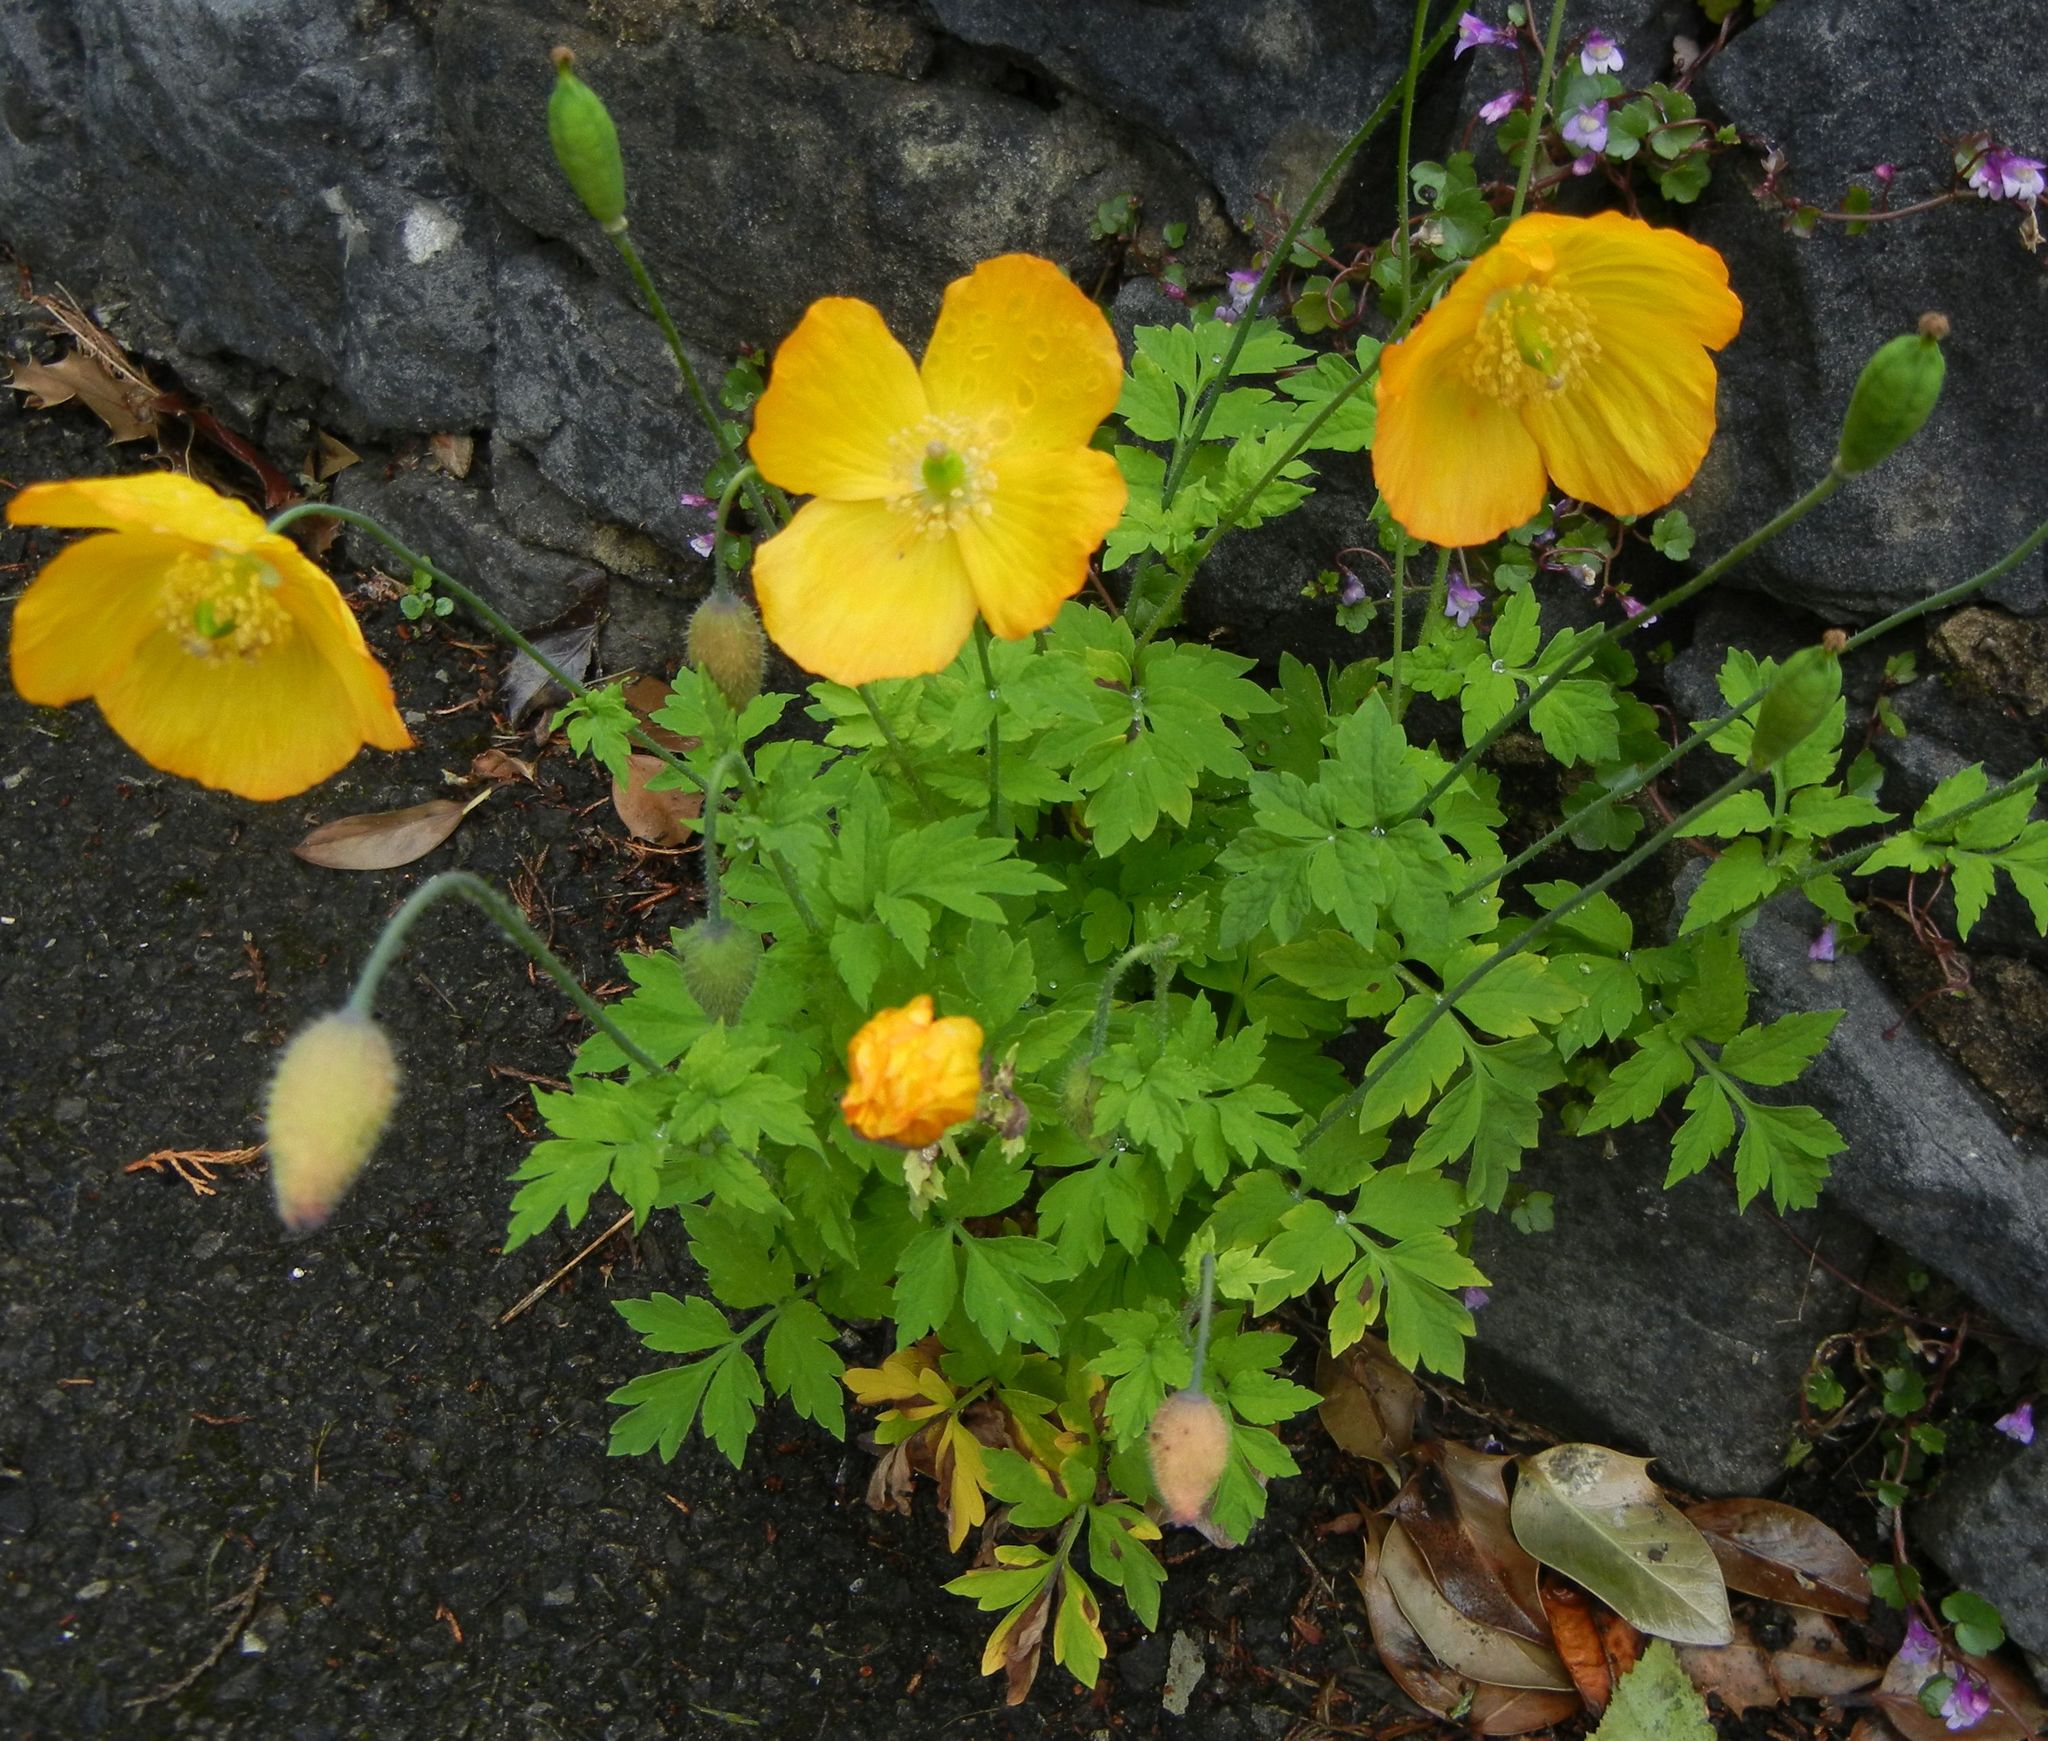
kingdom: Plantae
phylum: Tracheophyta
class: Magnoliopsida
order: Ranunculales
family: Papaveraceae
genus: Papaver
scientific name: Papaver cambricum
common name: Poppy
